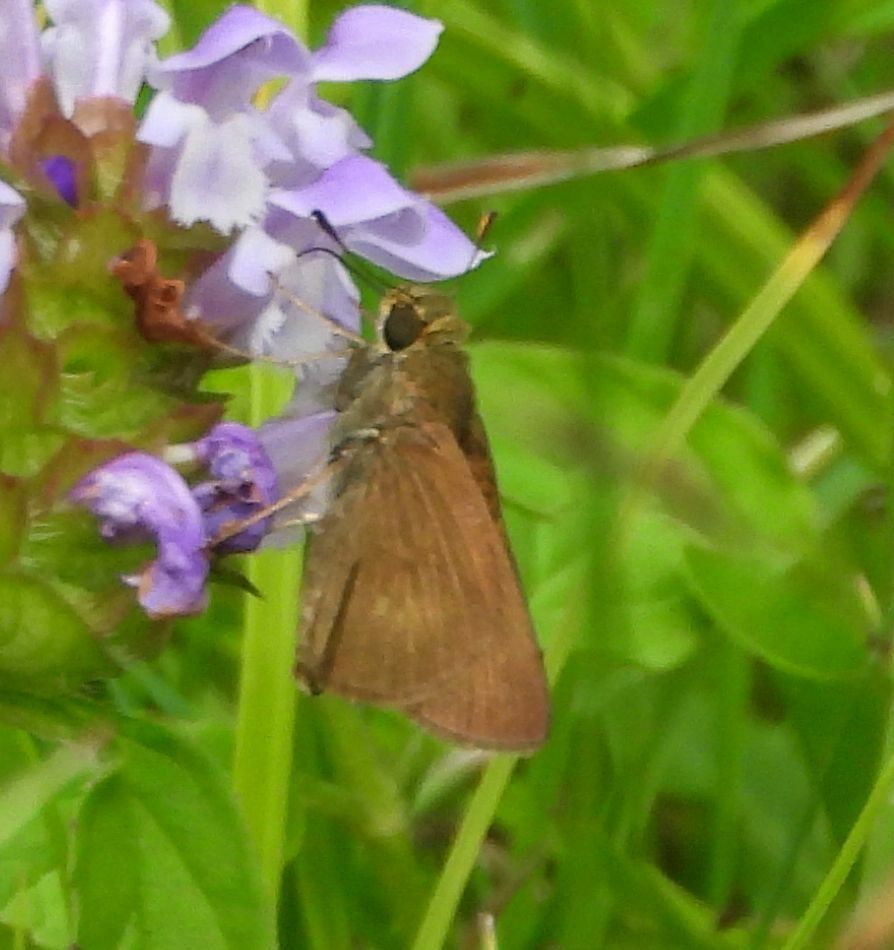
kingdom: Animalia
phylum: Arthropoda
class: Insecta
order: Lepidoptera
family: Hesperiidae
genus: Euphyes
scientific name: Euphyes vestris
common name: Dun skipper
